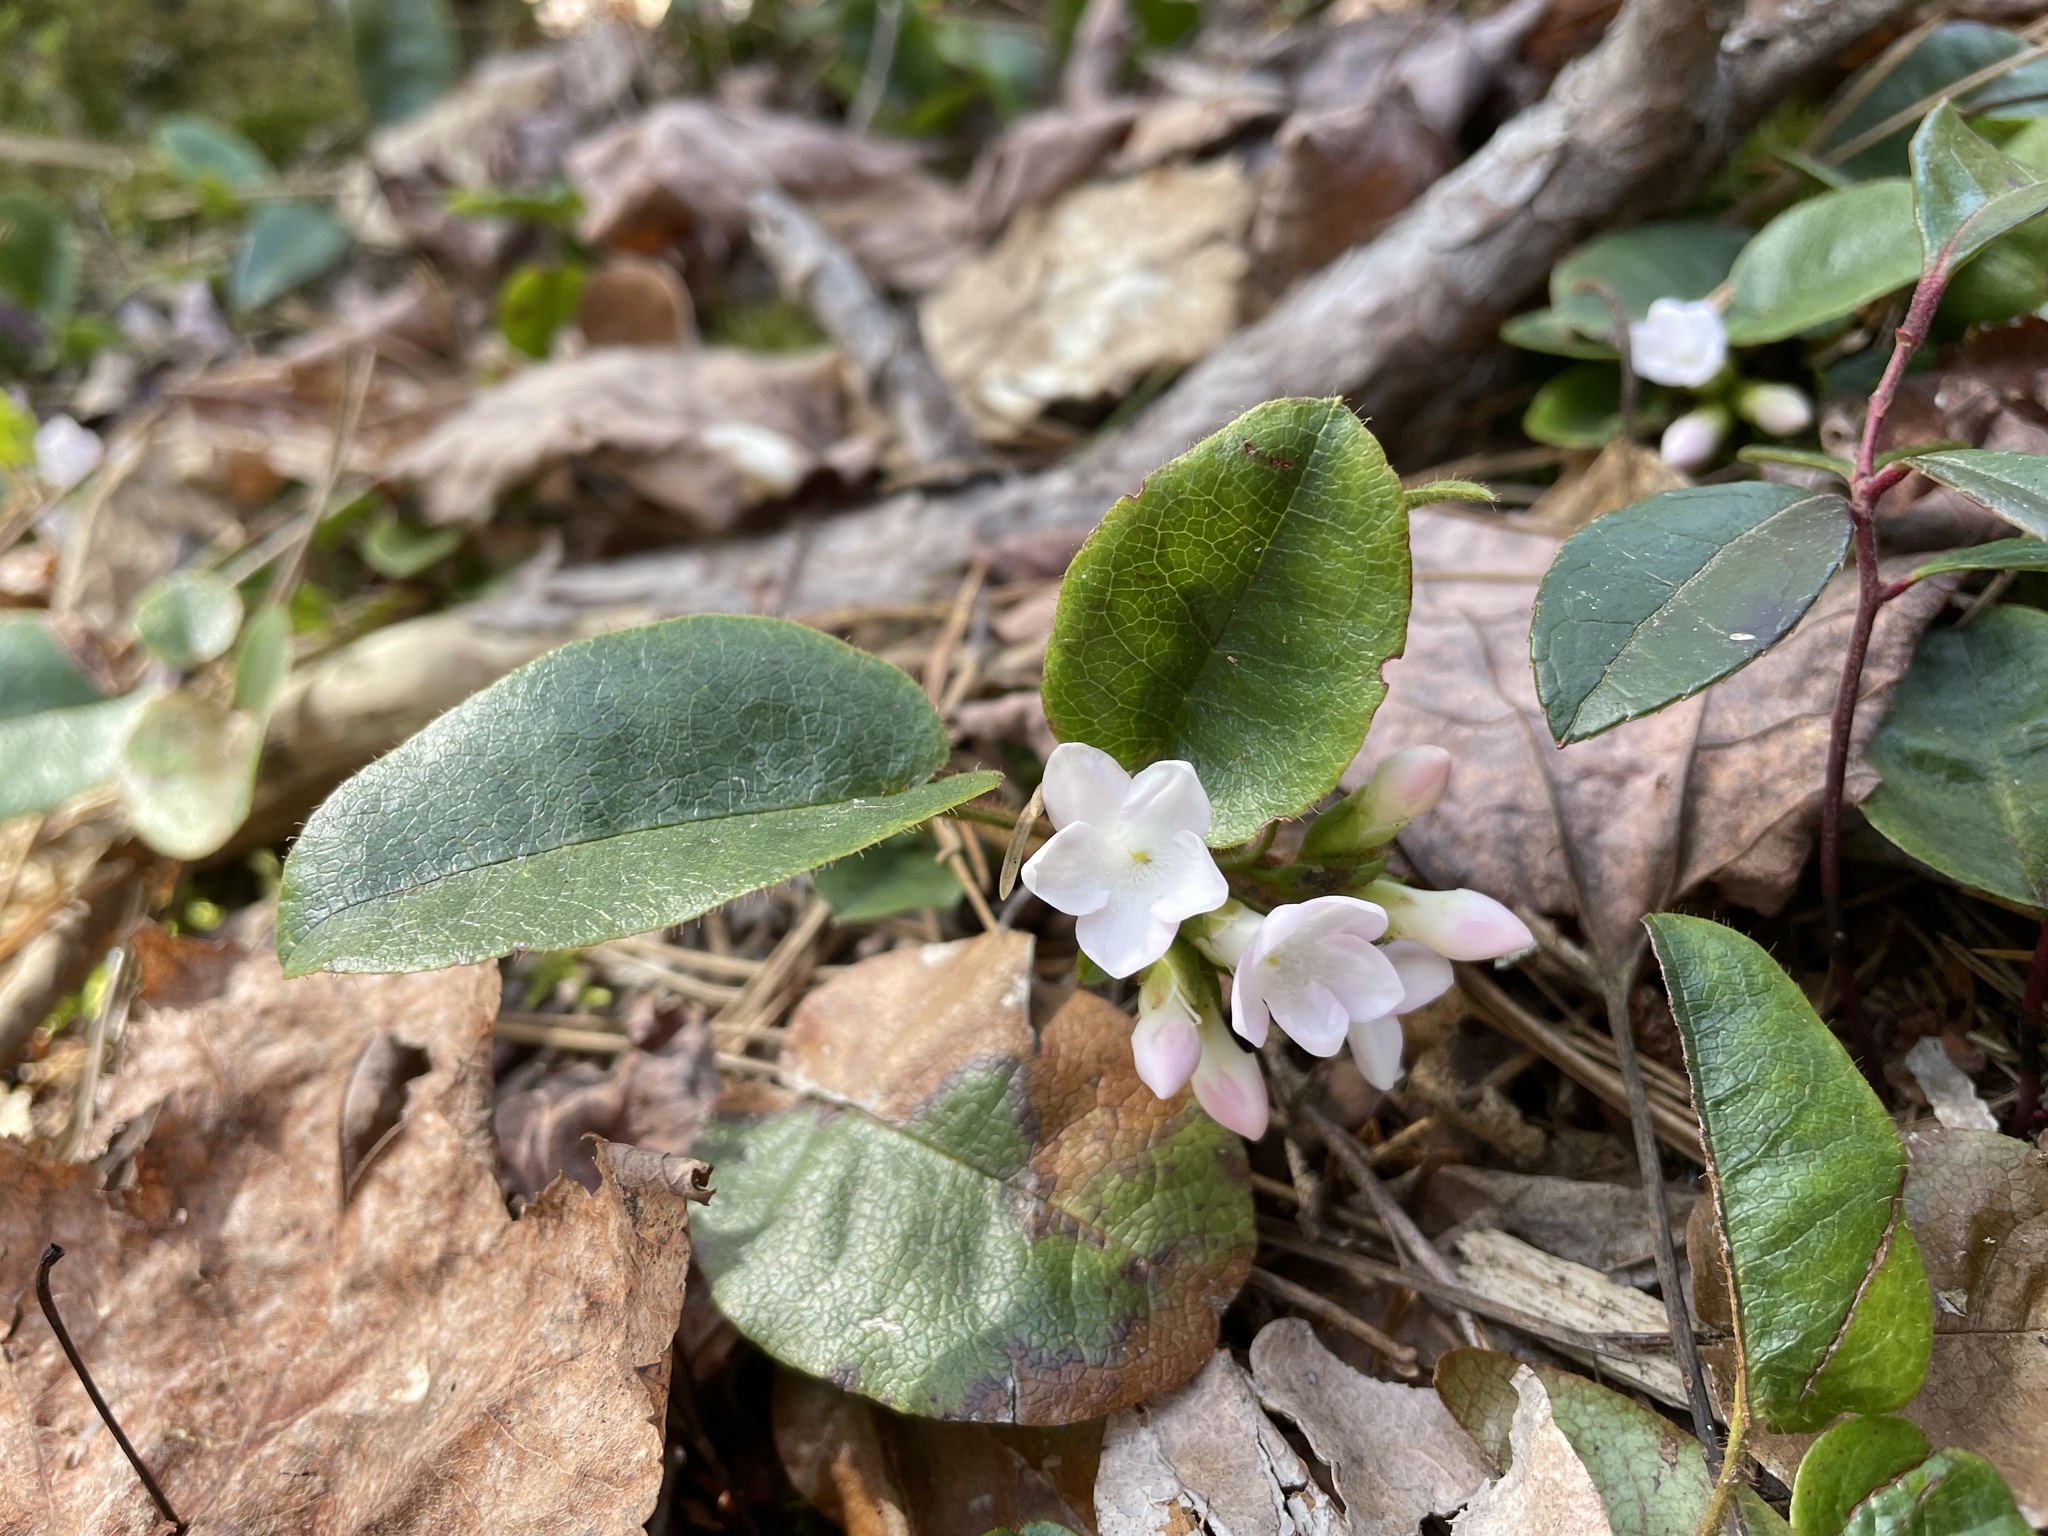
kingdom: Plantae
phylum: Tracheophyta
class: Magnoliopsida
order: Ericales
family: Ericaceae
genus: Epigaea
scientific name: Epigaea repens
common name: Gravelroot
